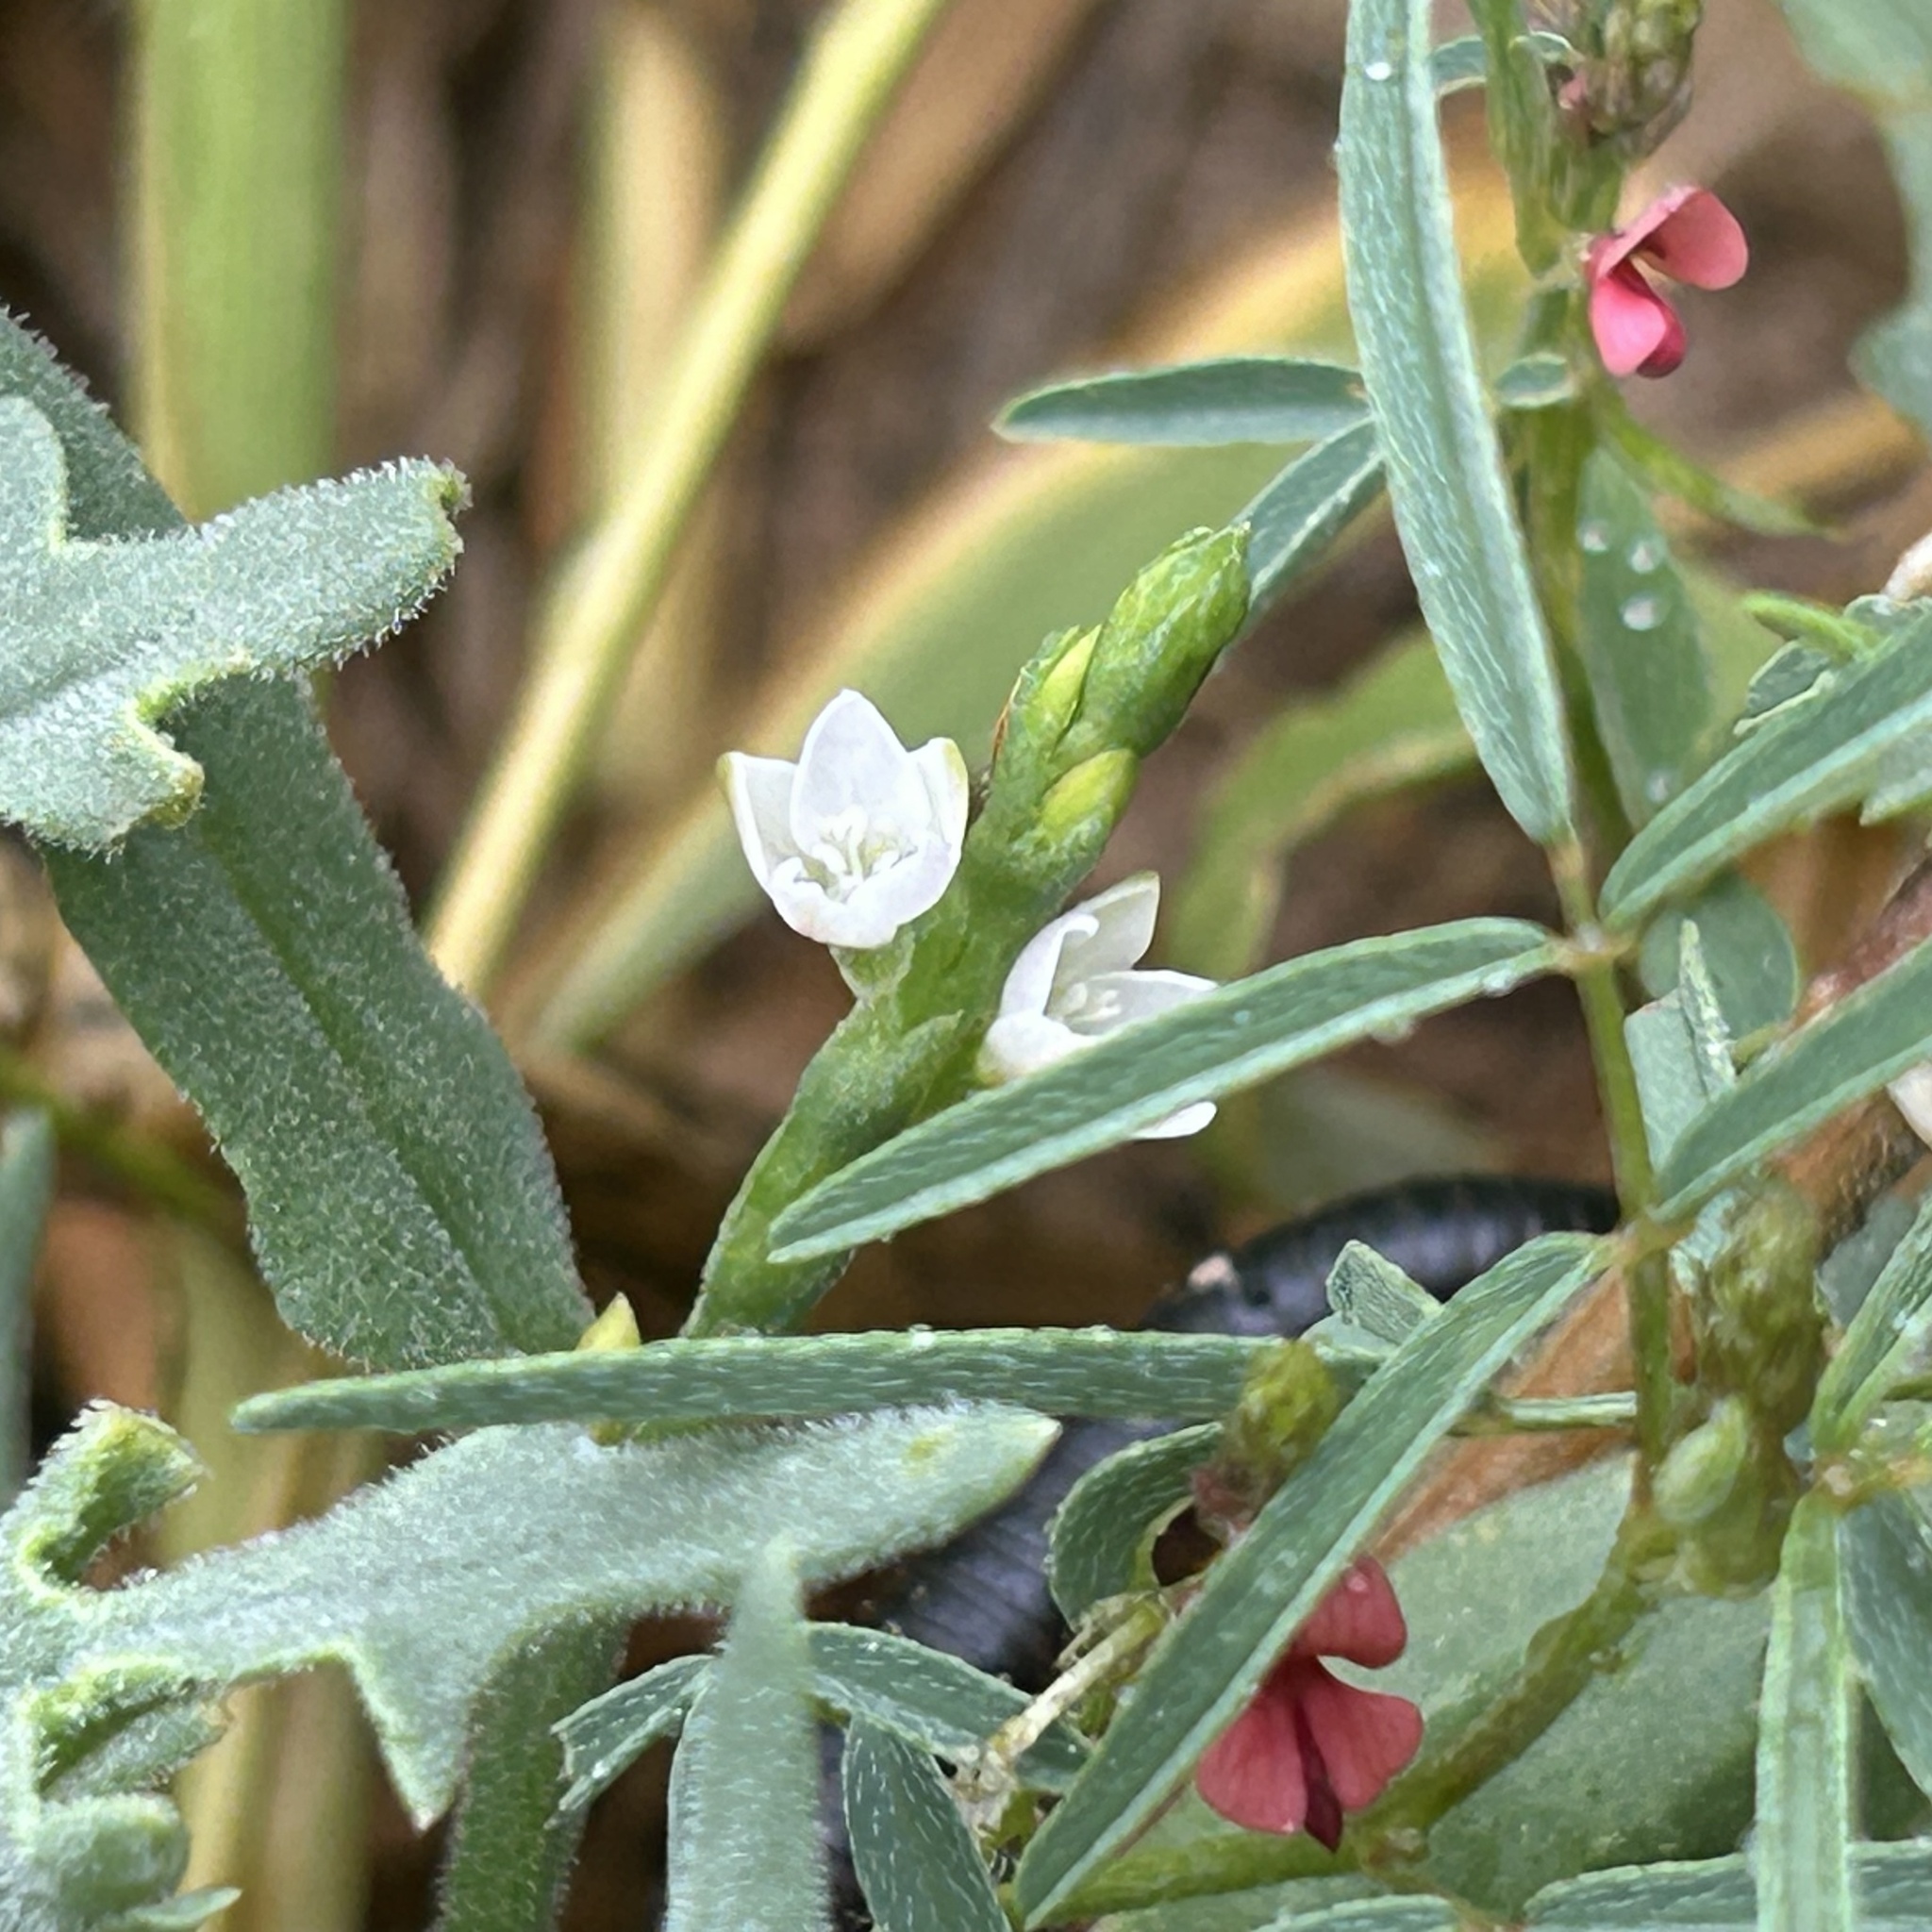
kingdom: Plantae
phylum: Tracheophyta
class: Magnoliopsida
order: Caryophyllales
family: Polygonaceae
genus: Oxygonum
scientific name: Oxygonum alatum
